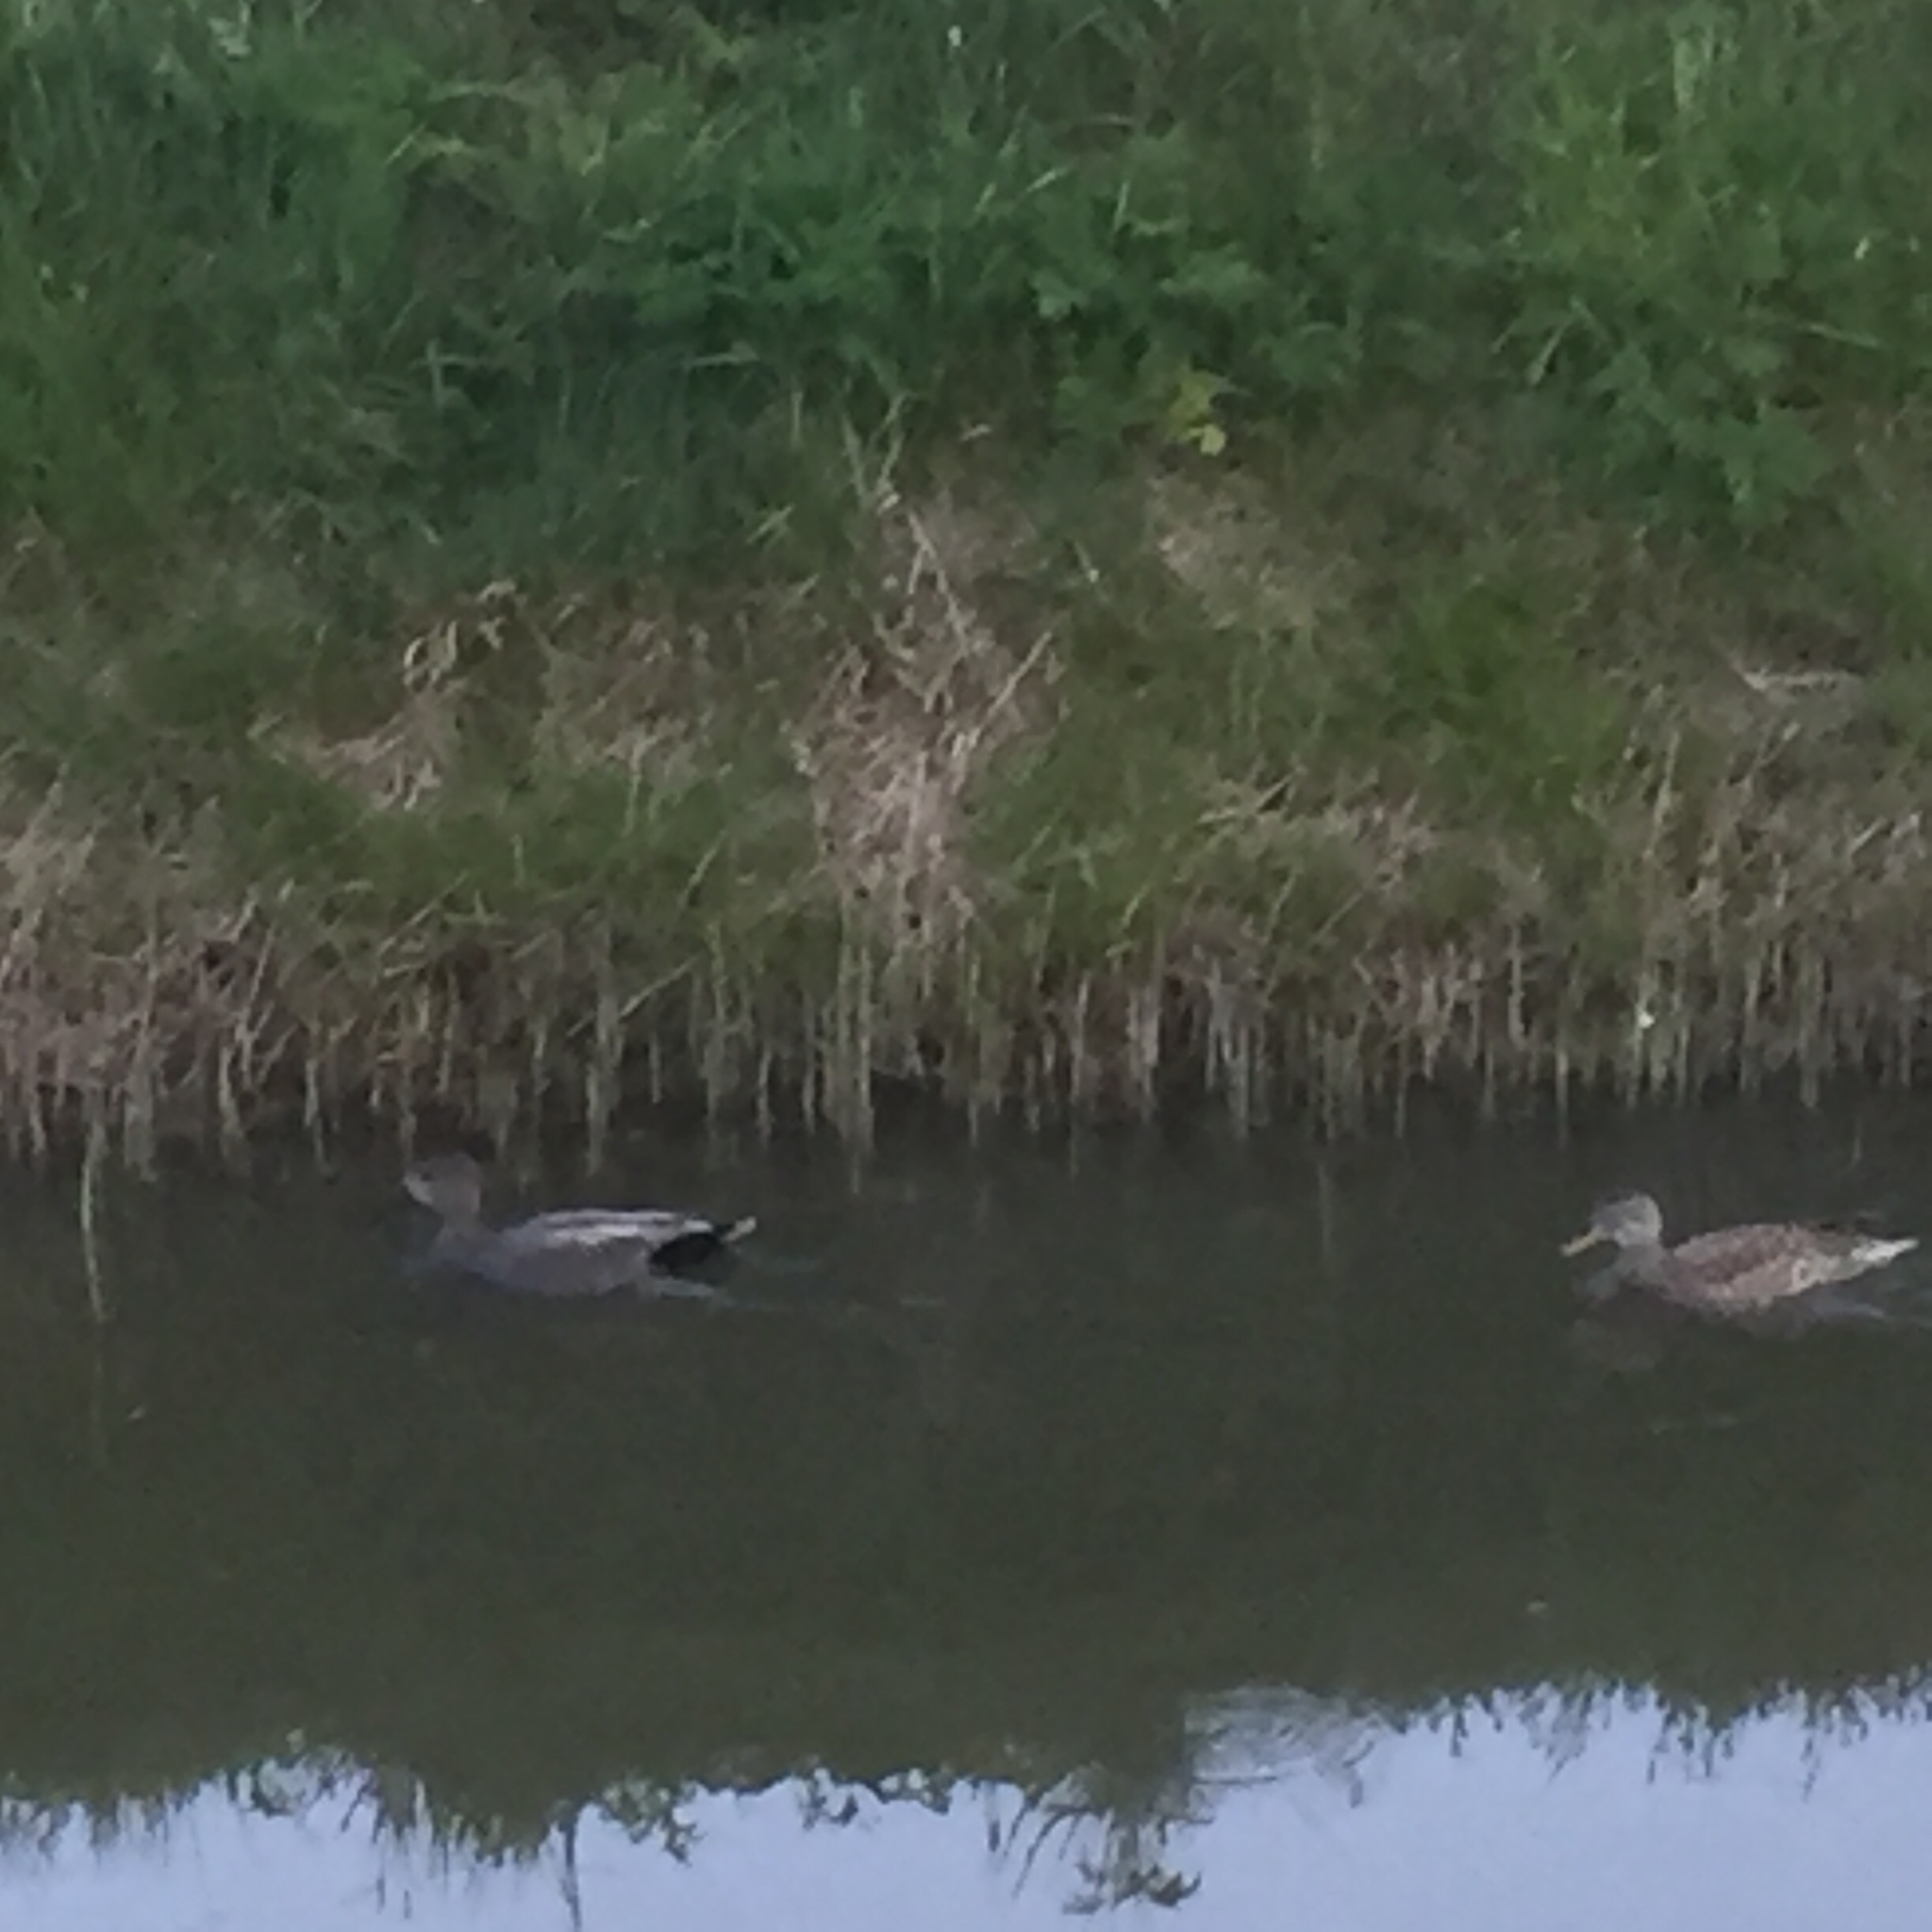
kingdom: Animalia
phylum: Chordata
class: Aves
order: Anseriformes
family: Anatidae
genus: Mareca
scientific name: Mareca strepera
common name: Gadwall
